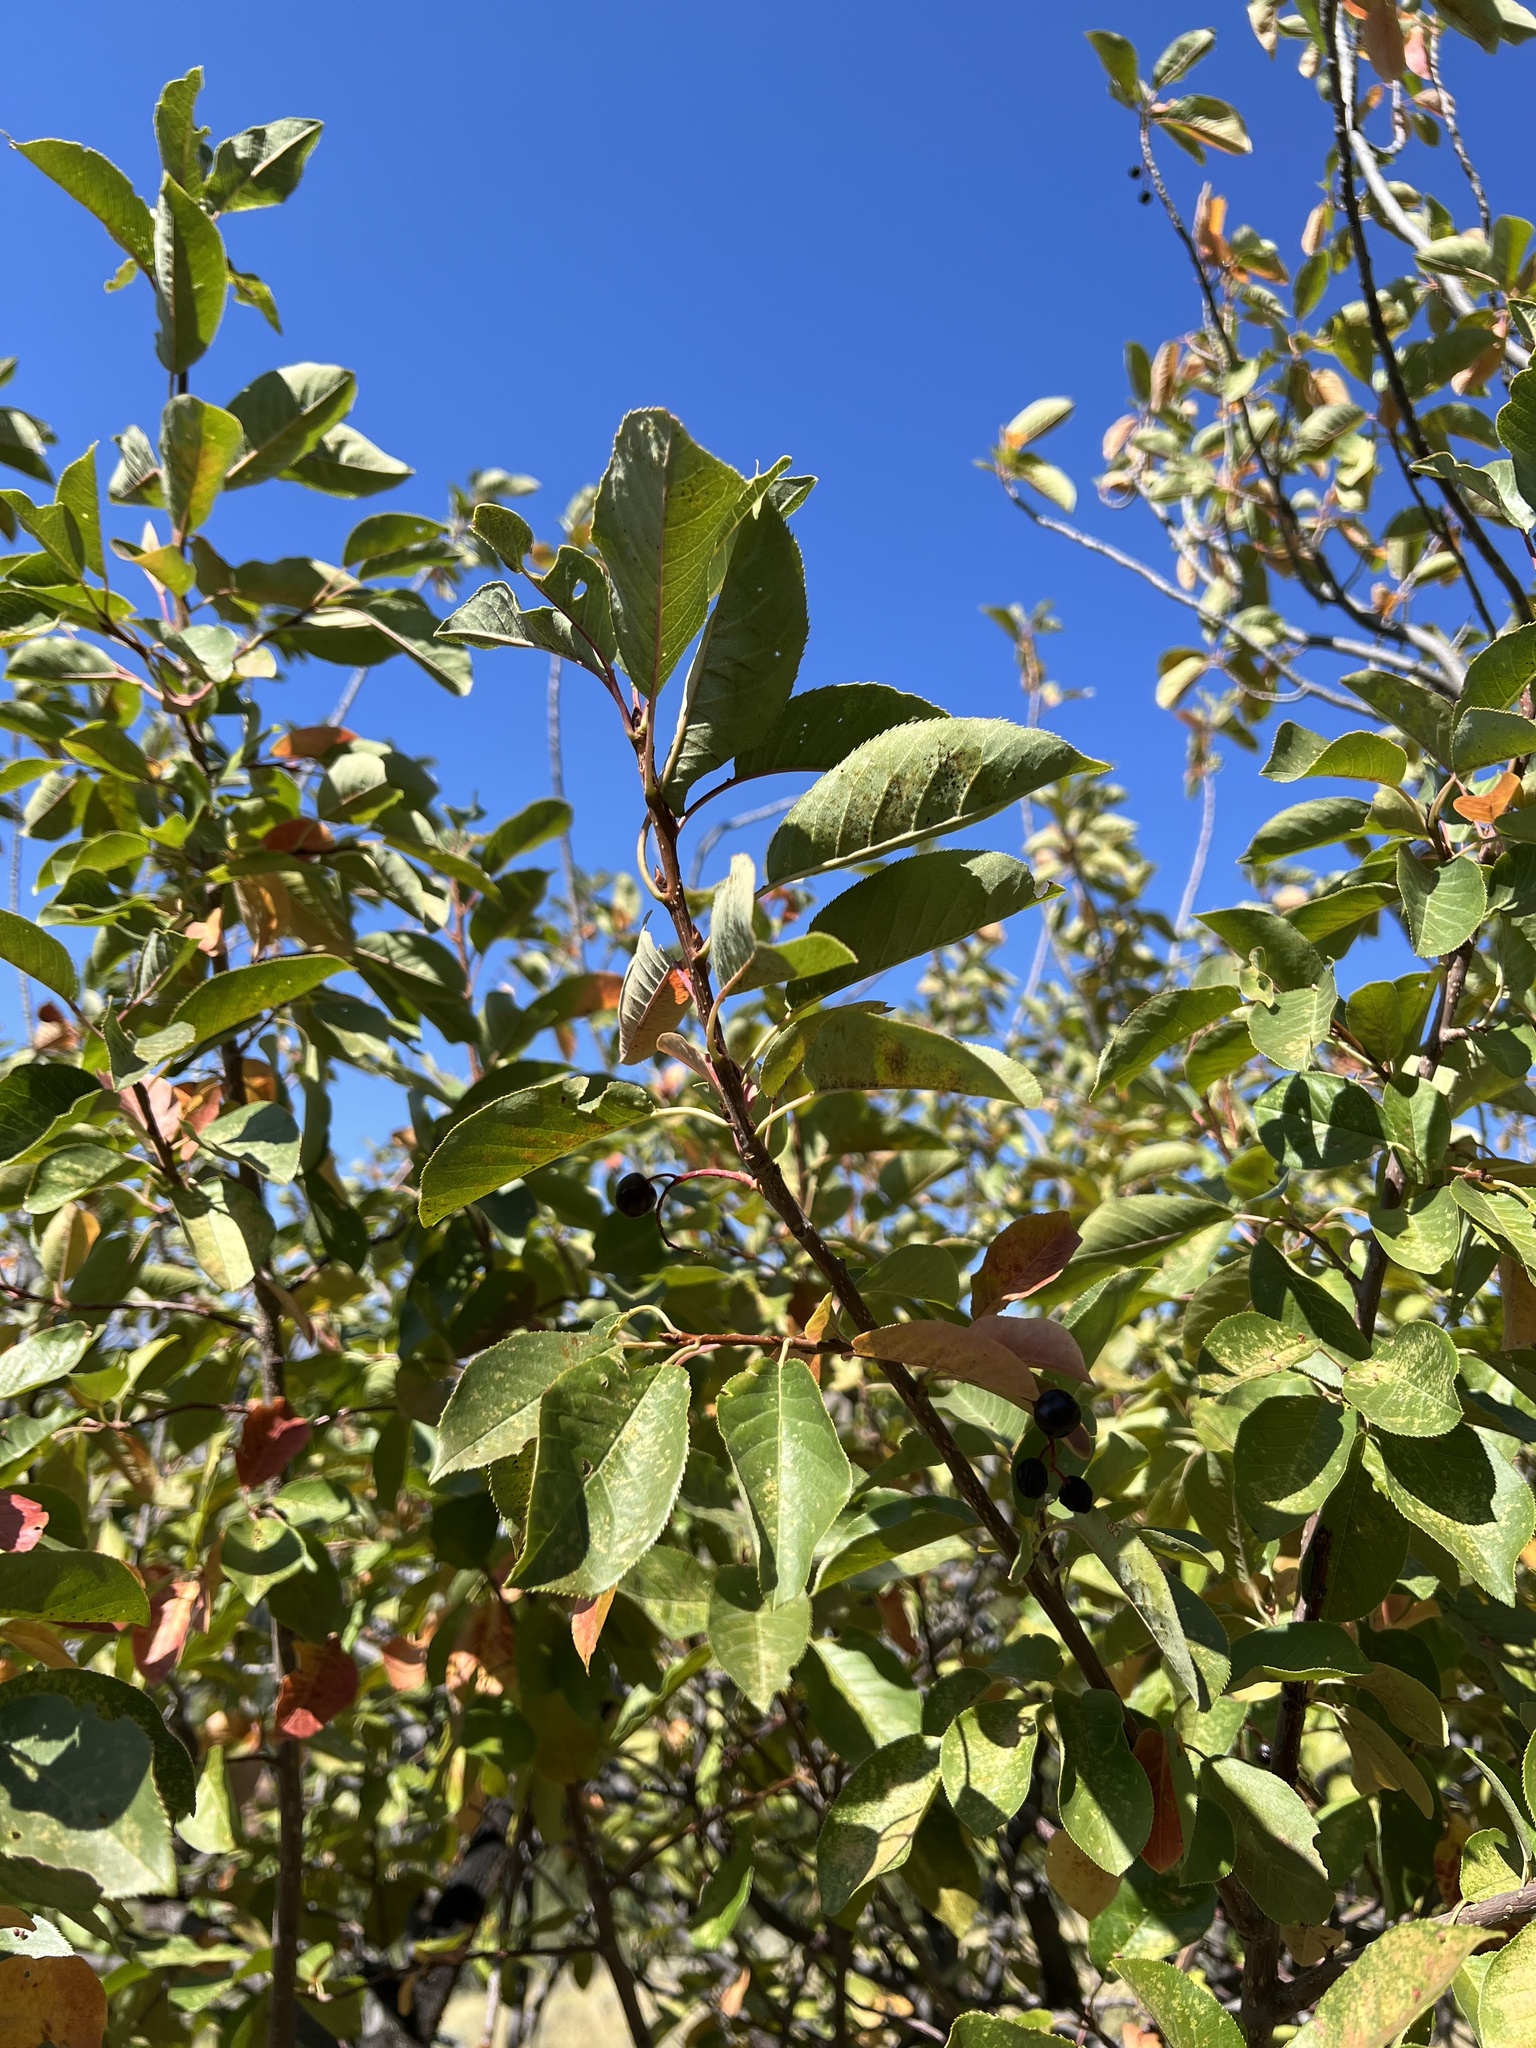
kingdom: Plantae
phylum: Tracheophyta
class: Magnoliopsida
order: Rosales
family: Rosaceae
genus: Prunus
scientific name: Prunus virginiana
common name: Chokecherry
